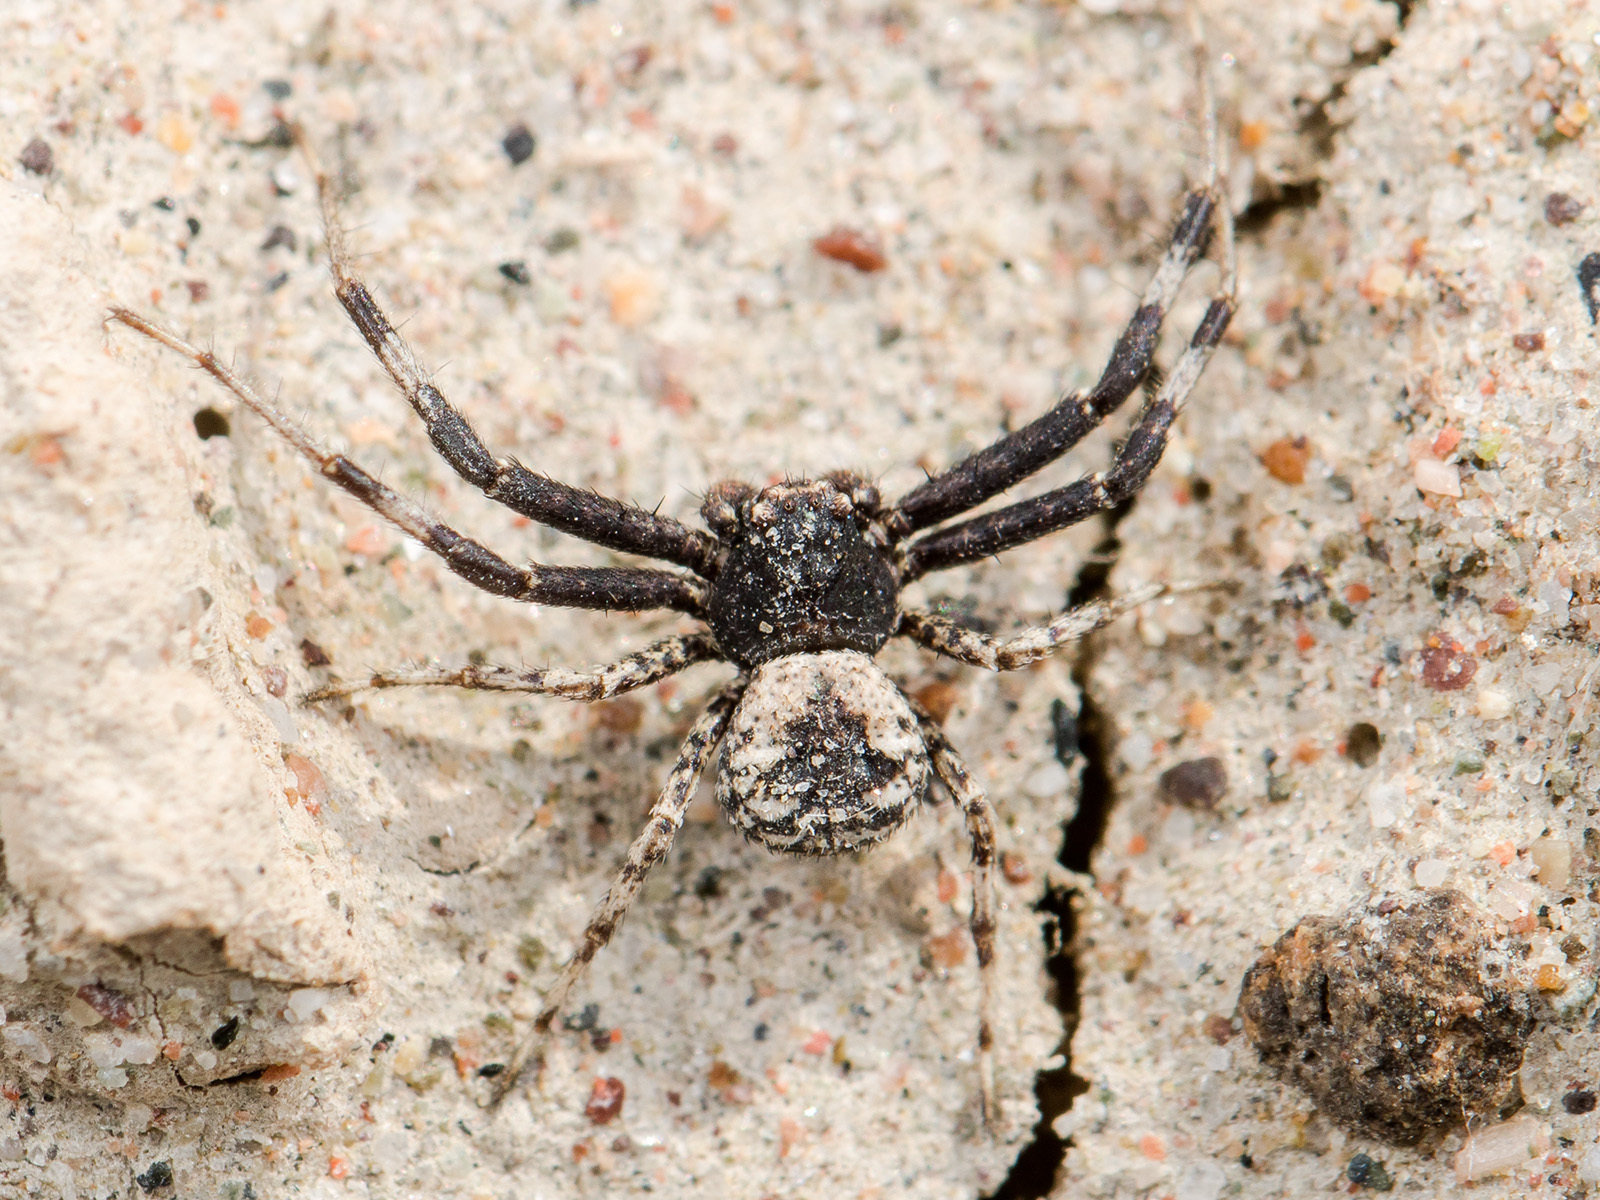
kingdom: Animalia
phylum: Arthropoda
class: Arachnida
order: Araneae
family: Thomisidae
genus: Ozyptila
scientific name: Ozyptila tuberosa
